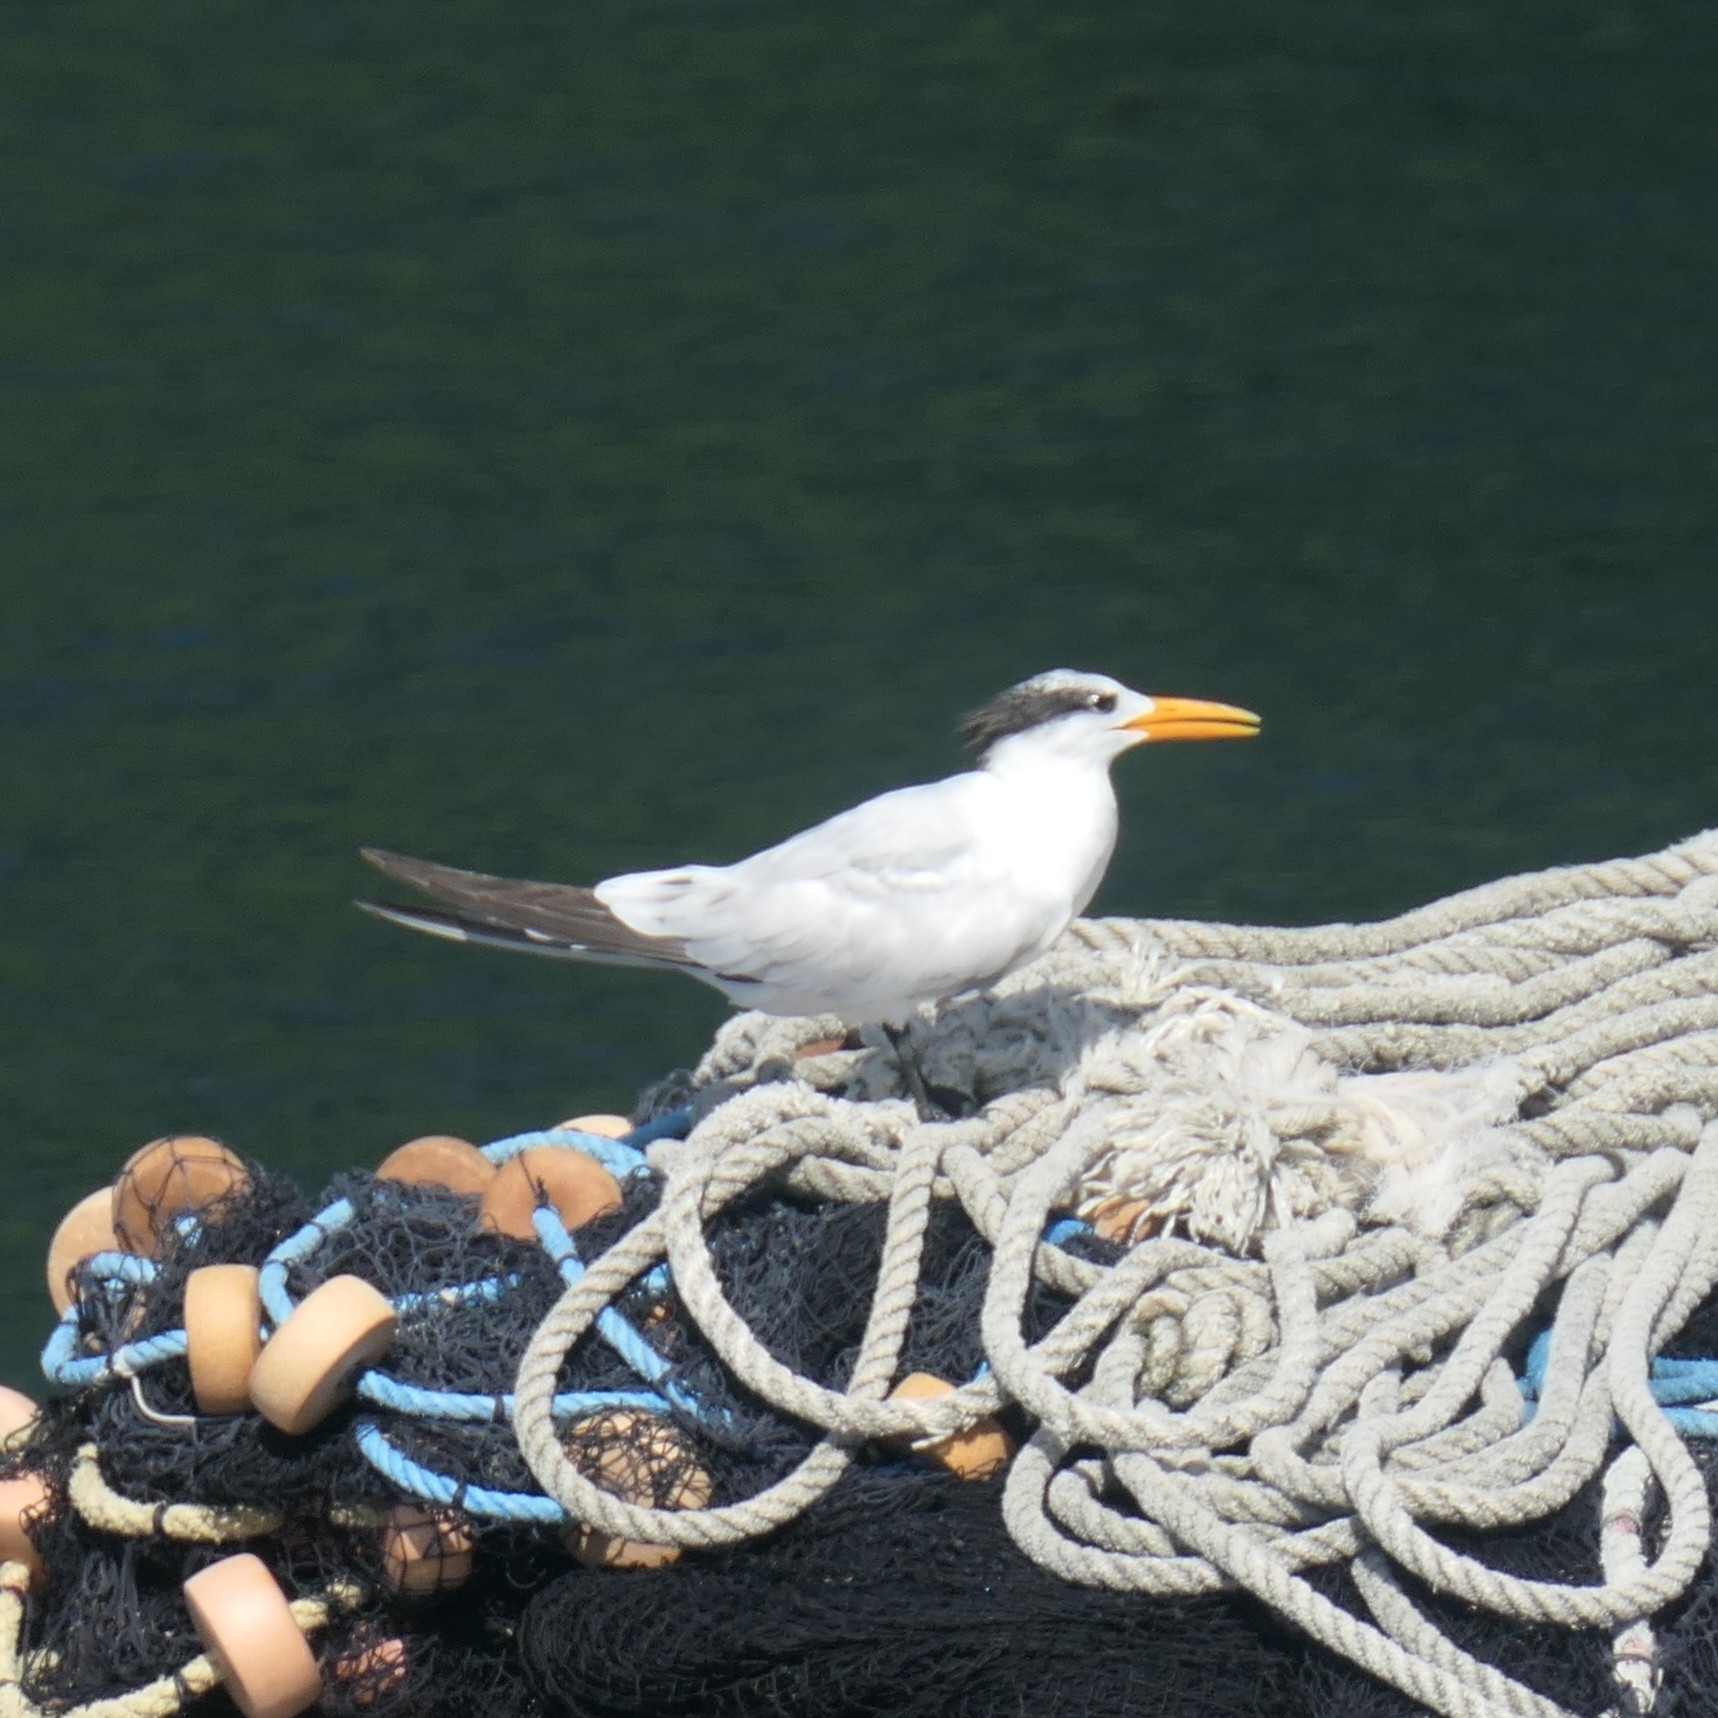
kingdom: Animalia
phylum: Chordata
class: Aves
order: Charadriiformes
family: Laridae
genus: Thalasseus
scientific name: Thalasseus maximus
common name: Royal tern
